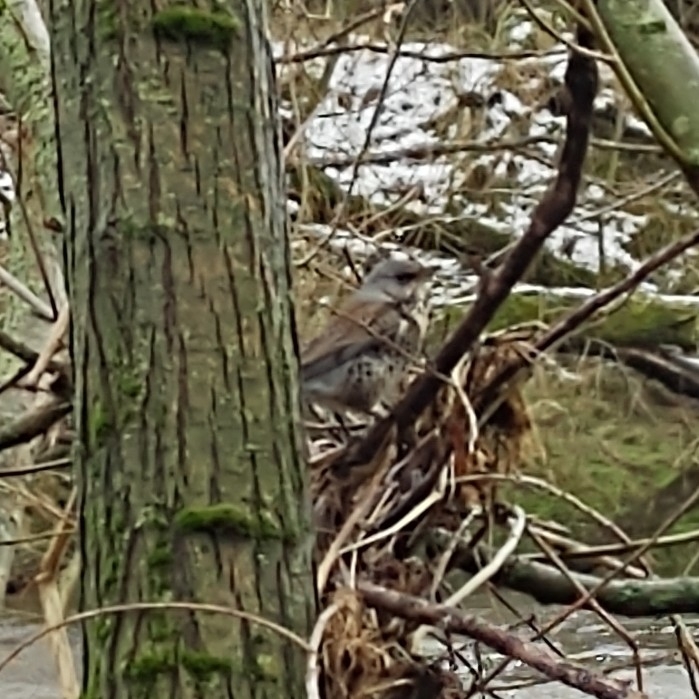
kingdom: Animalia
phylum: Chordata
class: Aves
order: Passeriformes
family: Turdidae
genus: Turdus
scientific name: Turdus pilaris
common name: Fieldfare
